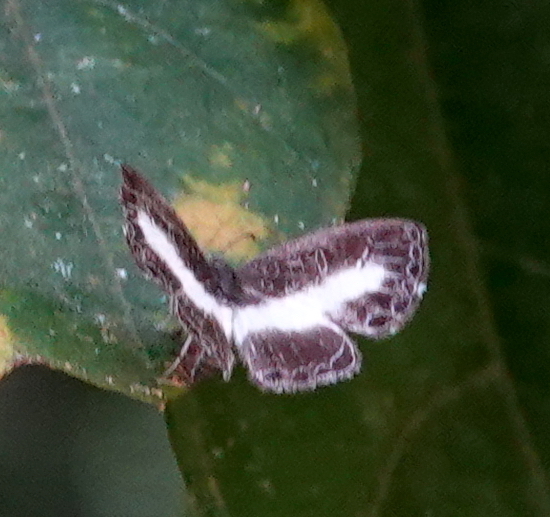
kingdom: Animalia
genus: Nymphidium
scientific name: Nymphidium baeotia
